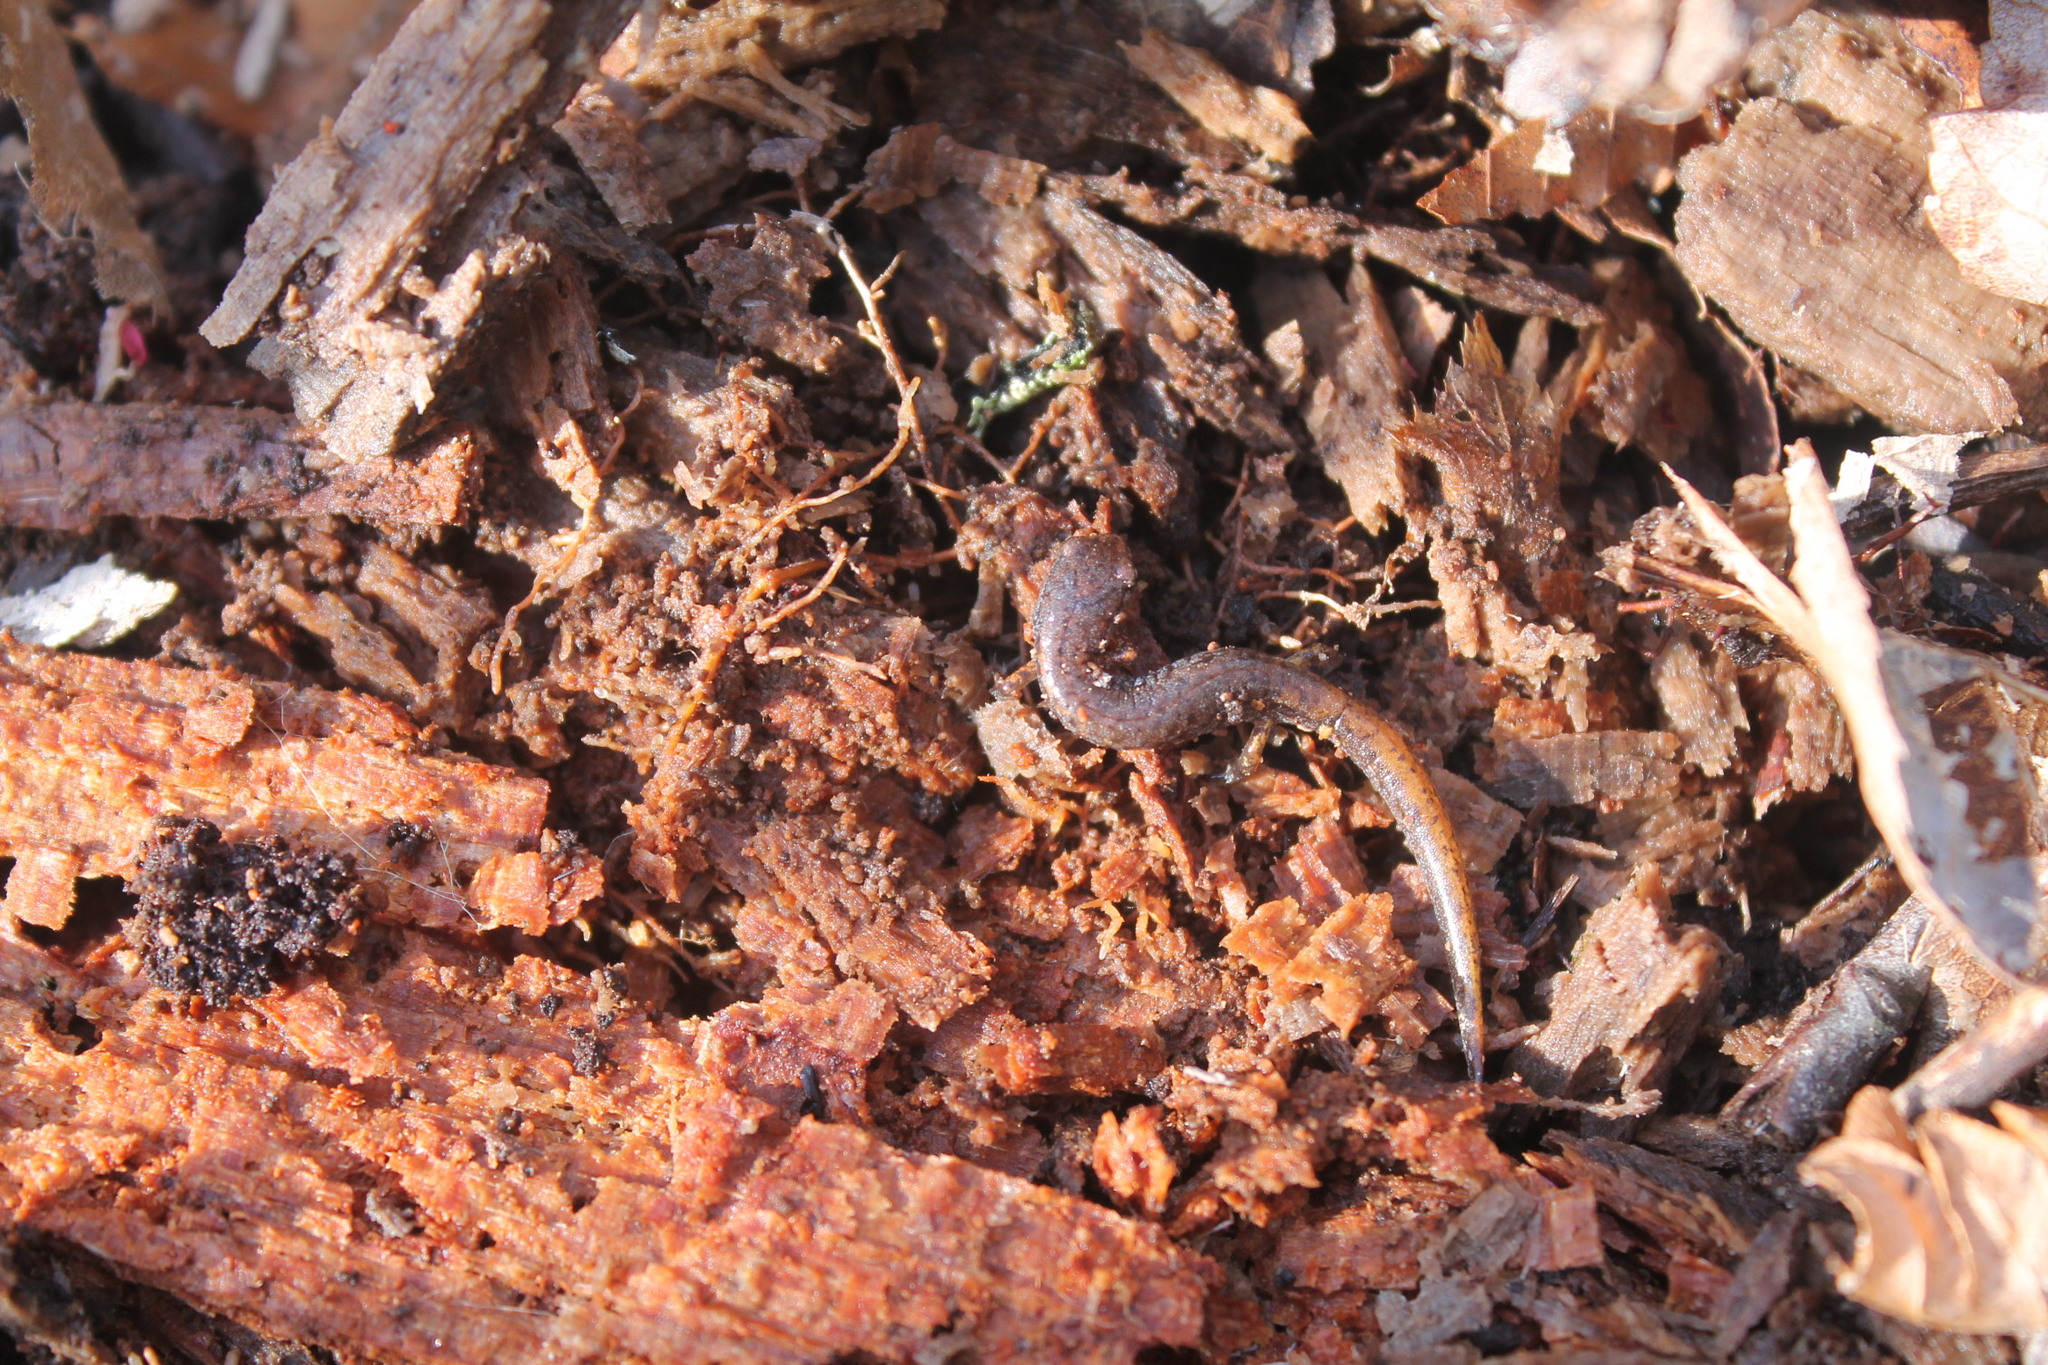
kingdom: Animalia
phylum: Chordata
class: Amphibia
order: Caudata
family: Plethodontidae
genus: Hemidactylium
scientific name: Hemidactylium scutatum
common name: Four-toed salamander
